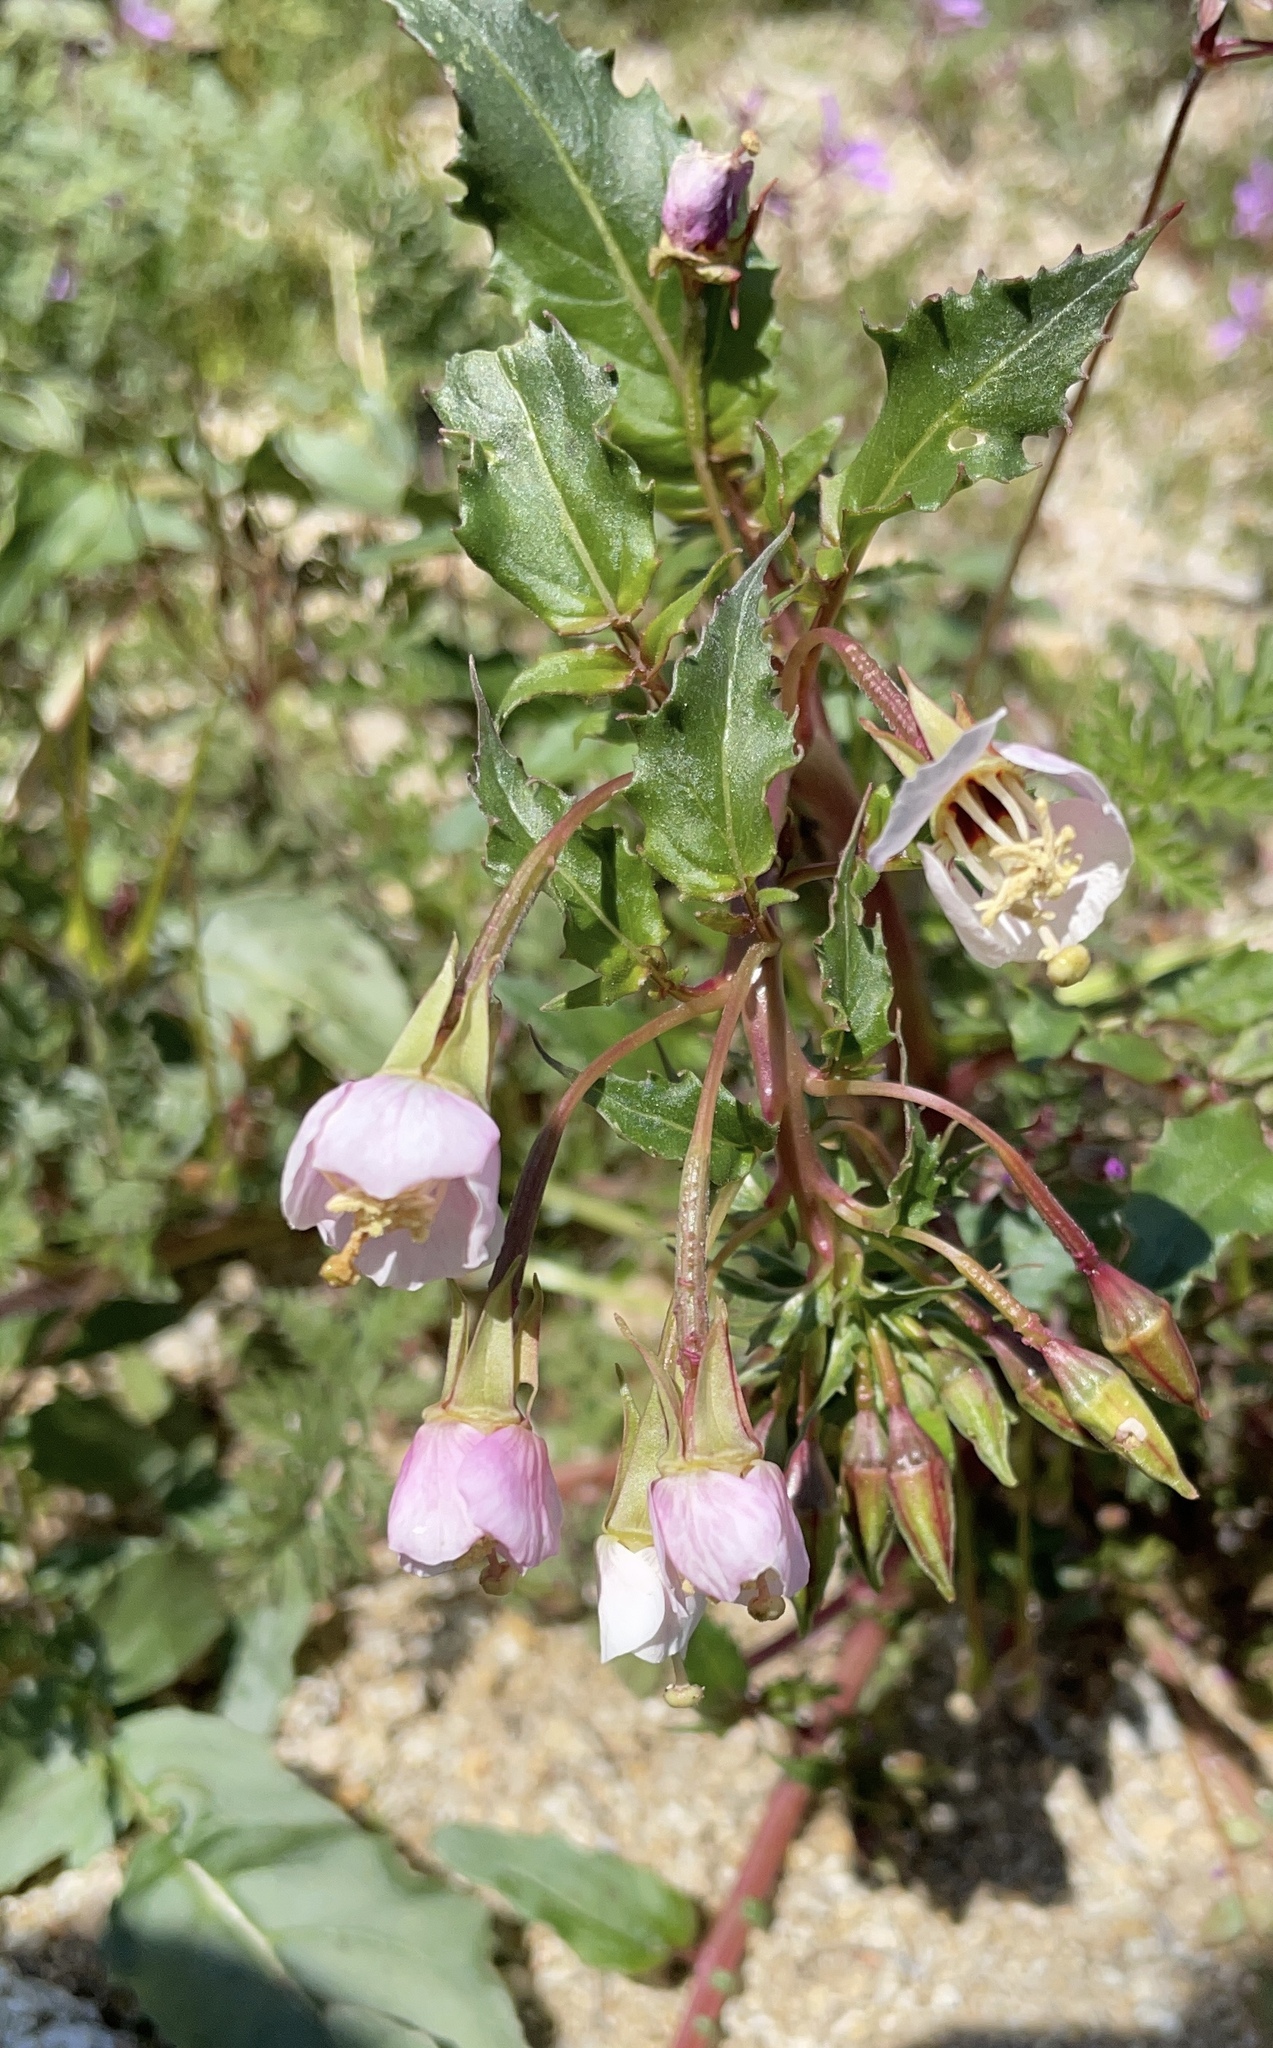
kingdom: Plantae
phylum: Tracheophyta
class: Magnoliopsida
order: Myrtales
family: Onagraceae
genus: Chylismia
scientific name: Chylismia claviformis
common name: Browneyes
